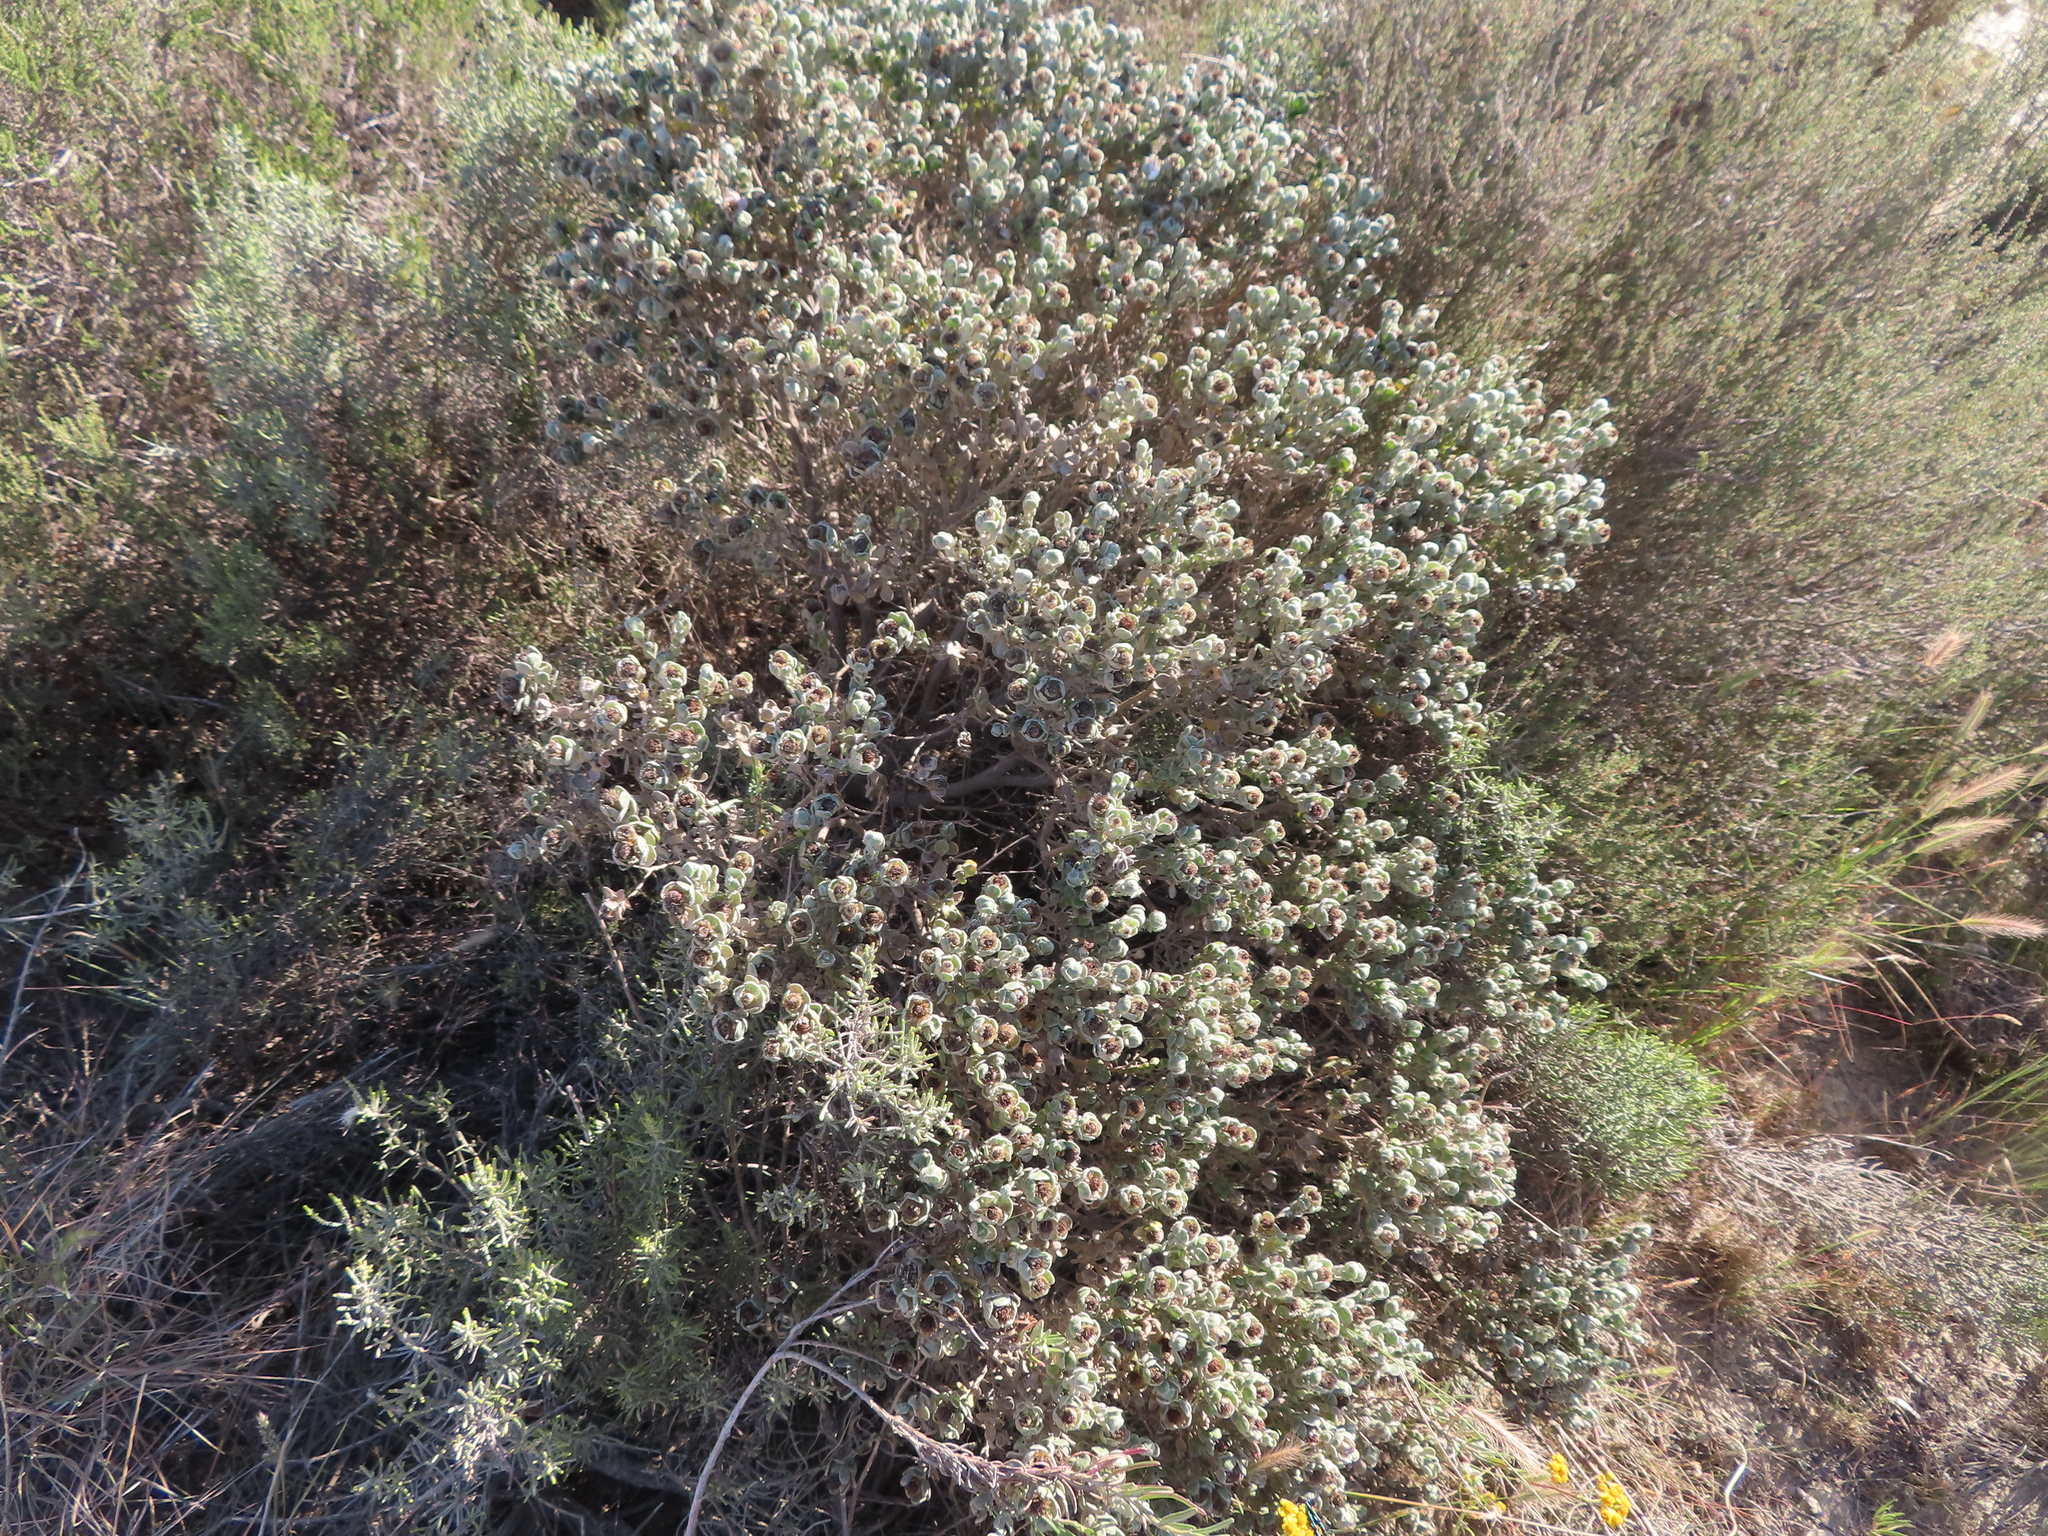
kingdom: Plantae
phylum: Tracheophyta
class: Magnoliopsida
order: Asterales
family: Asteraceae
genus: Oedera
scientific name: Oedera spathulifolia
